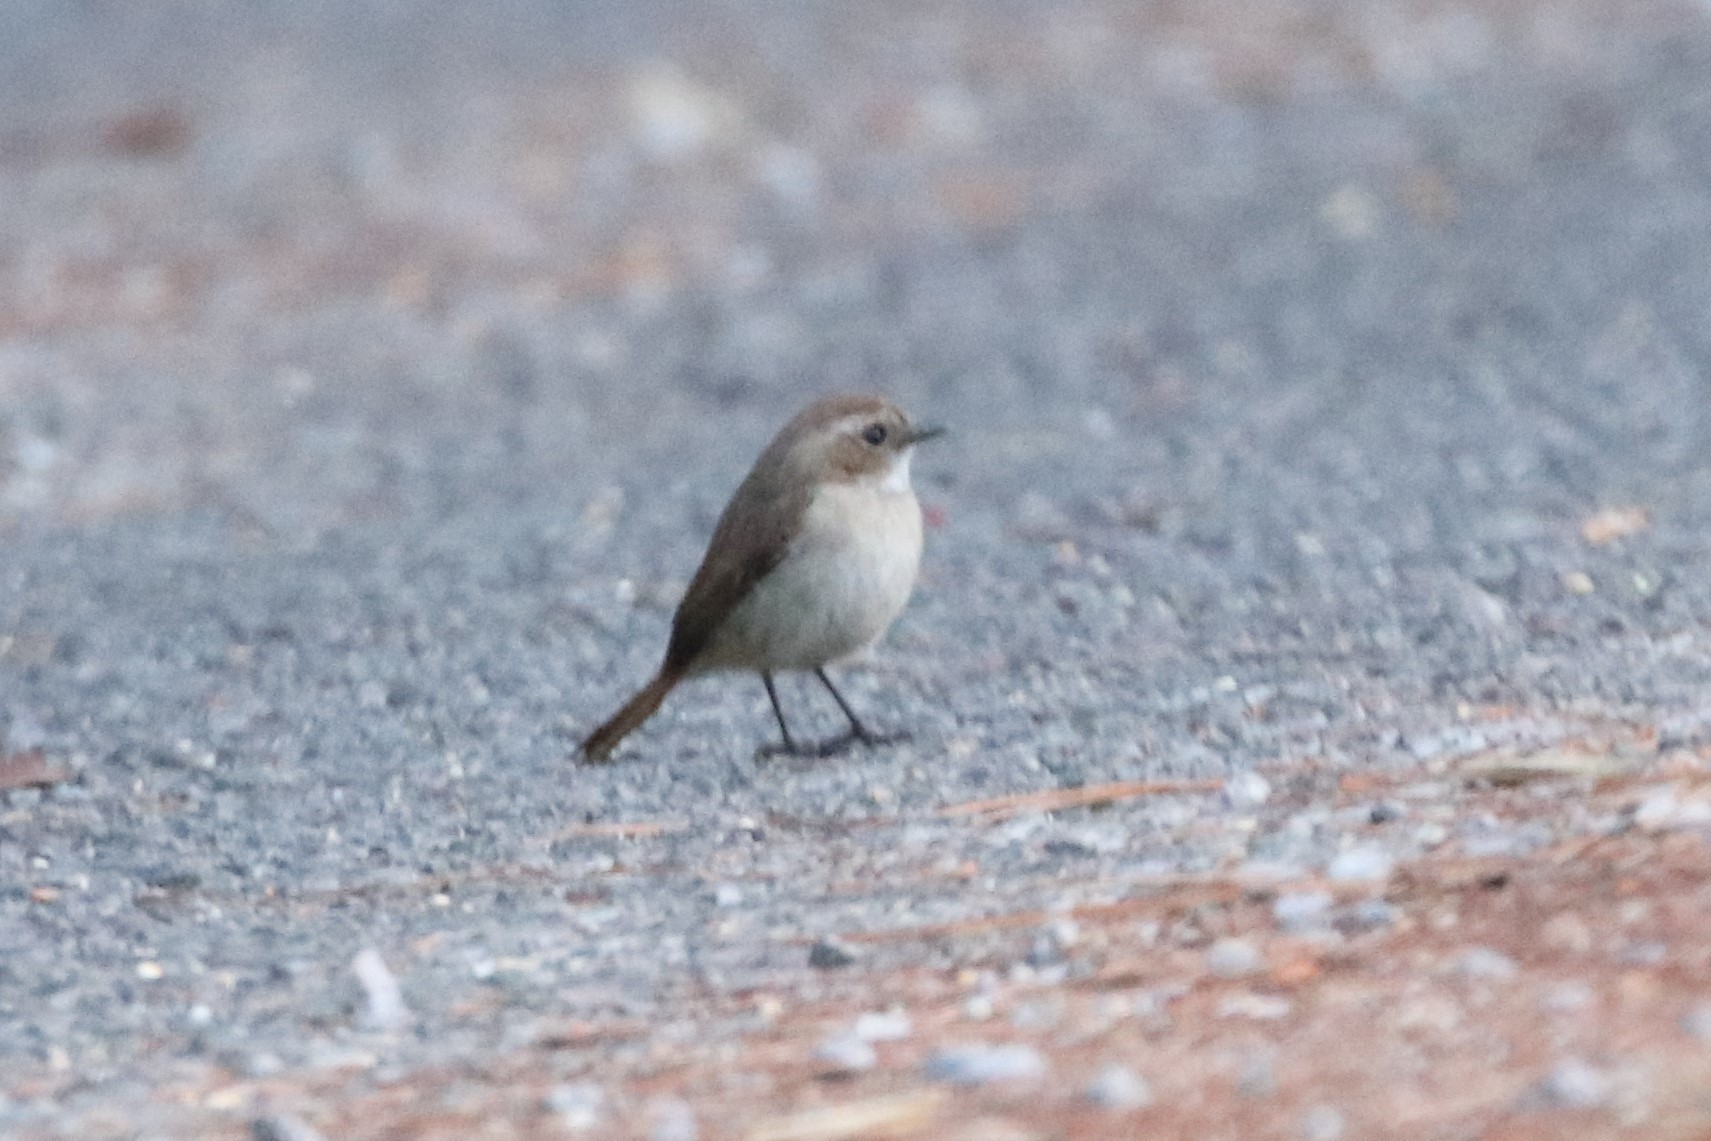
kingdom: Animalia
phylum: Chordata
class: Aves
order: Passeriformes
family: Muscicapidae
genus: Saxicola
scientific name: Saxicola ferreus
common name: Grey bush chat
